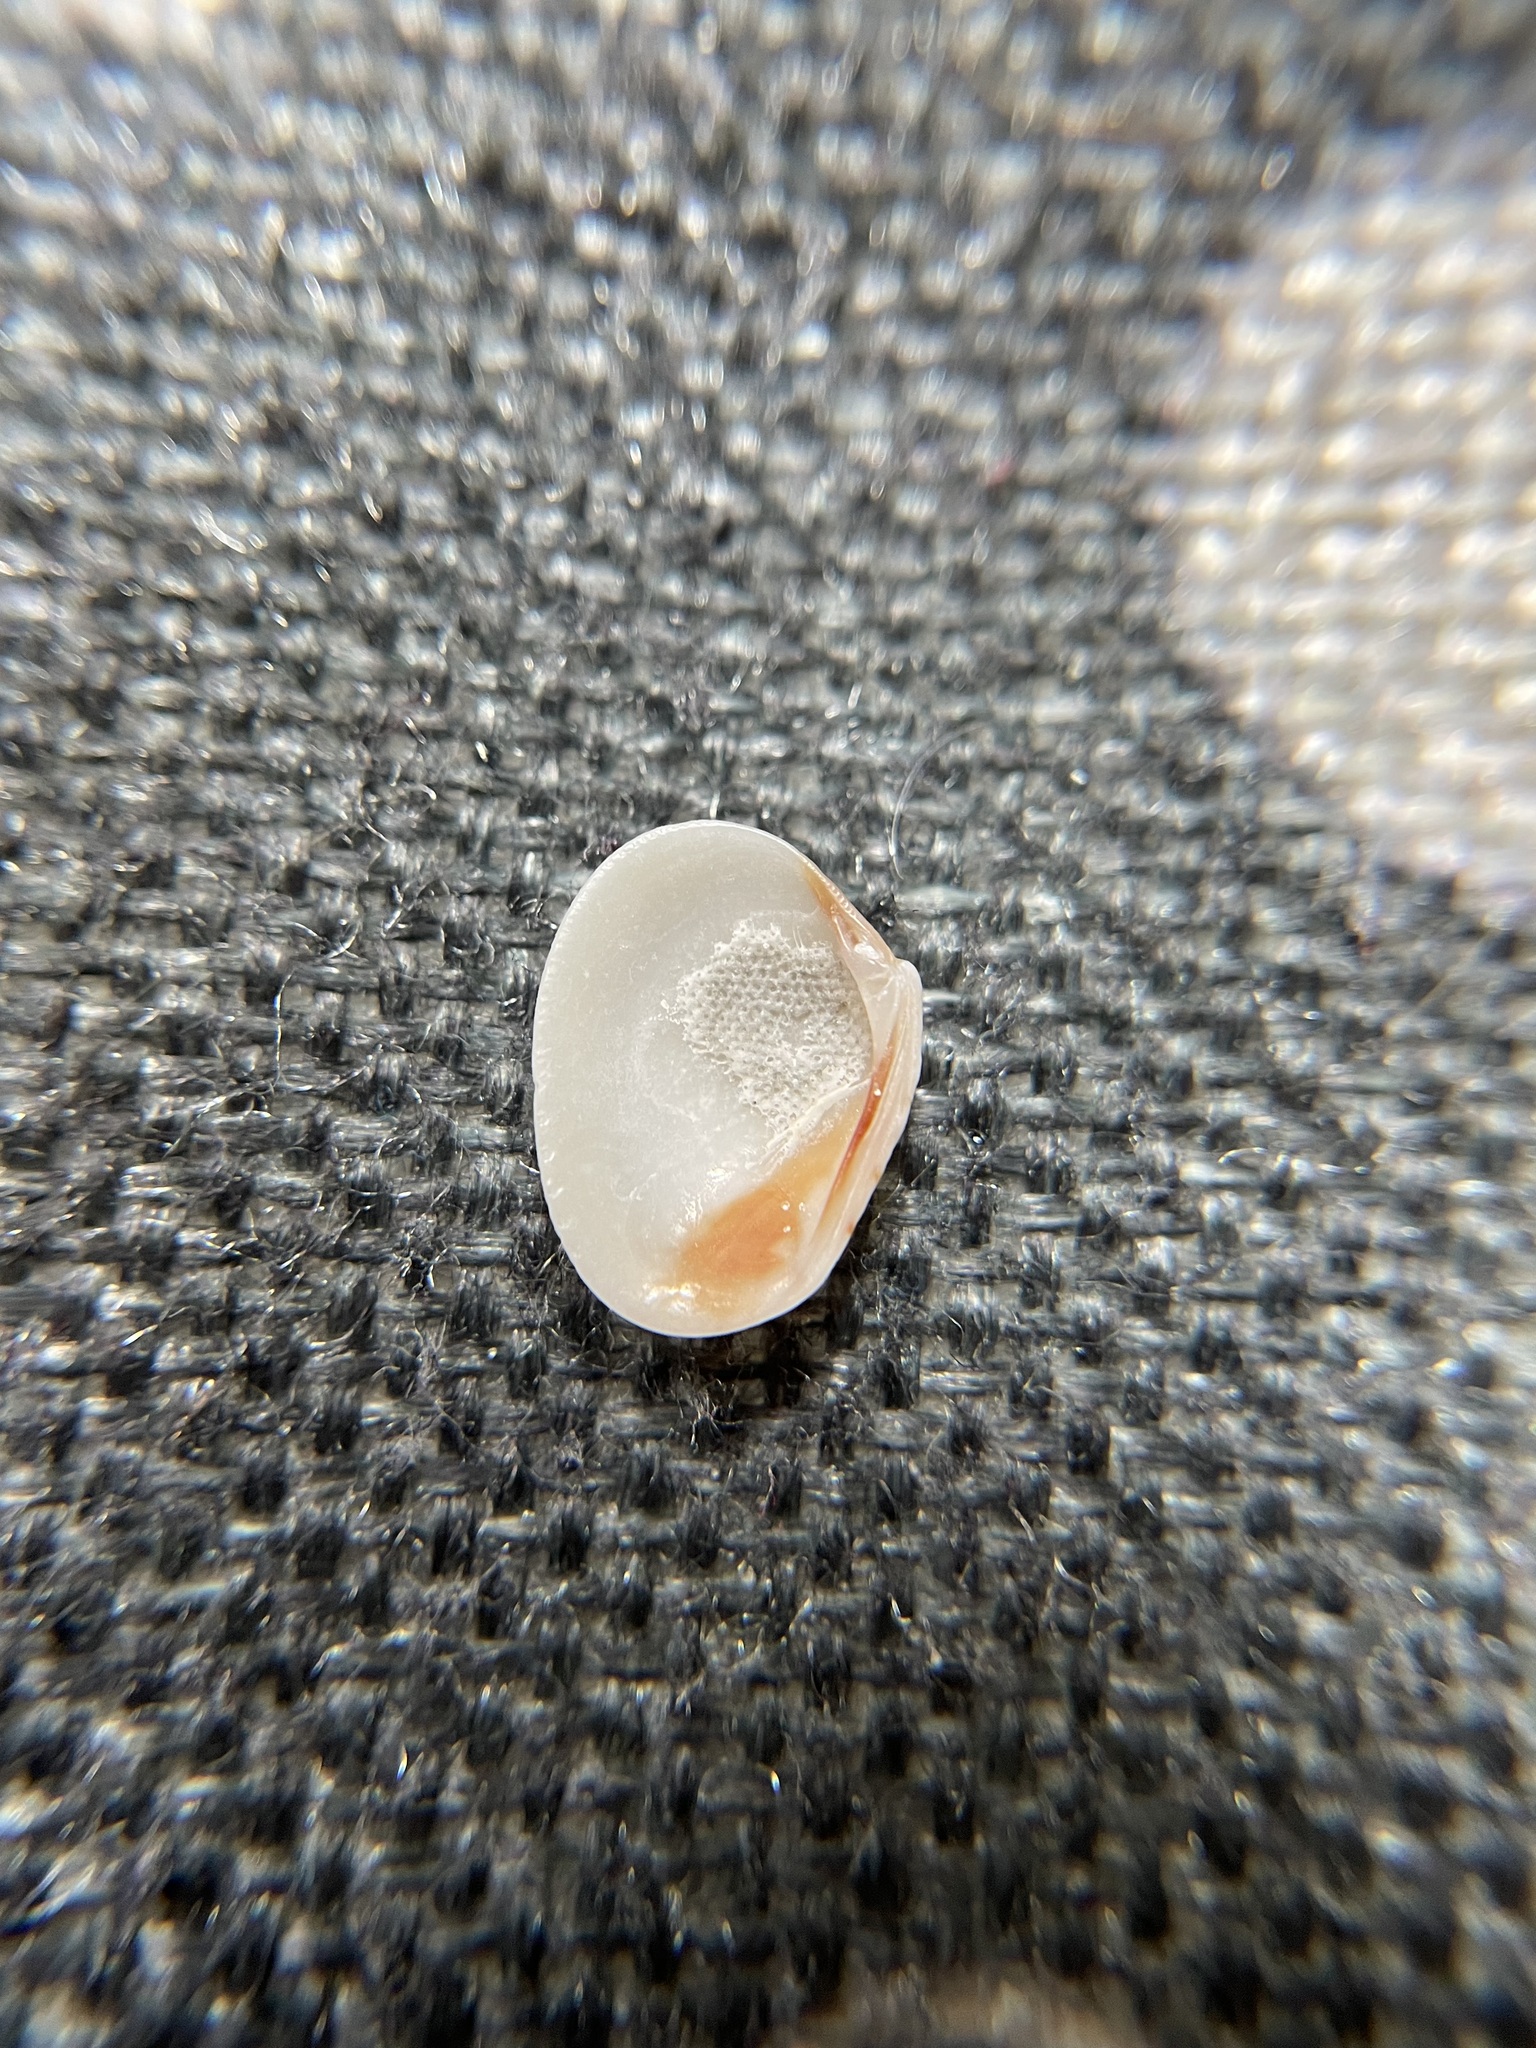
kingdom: Animalia
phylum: Mollusca
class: Bivalvia
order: Venerida
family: Veneridae
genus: Chioneryx
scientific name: Chioneryx grus
